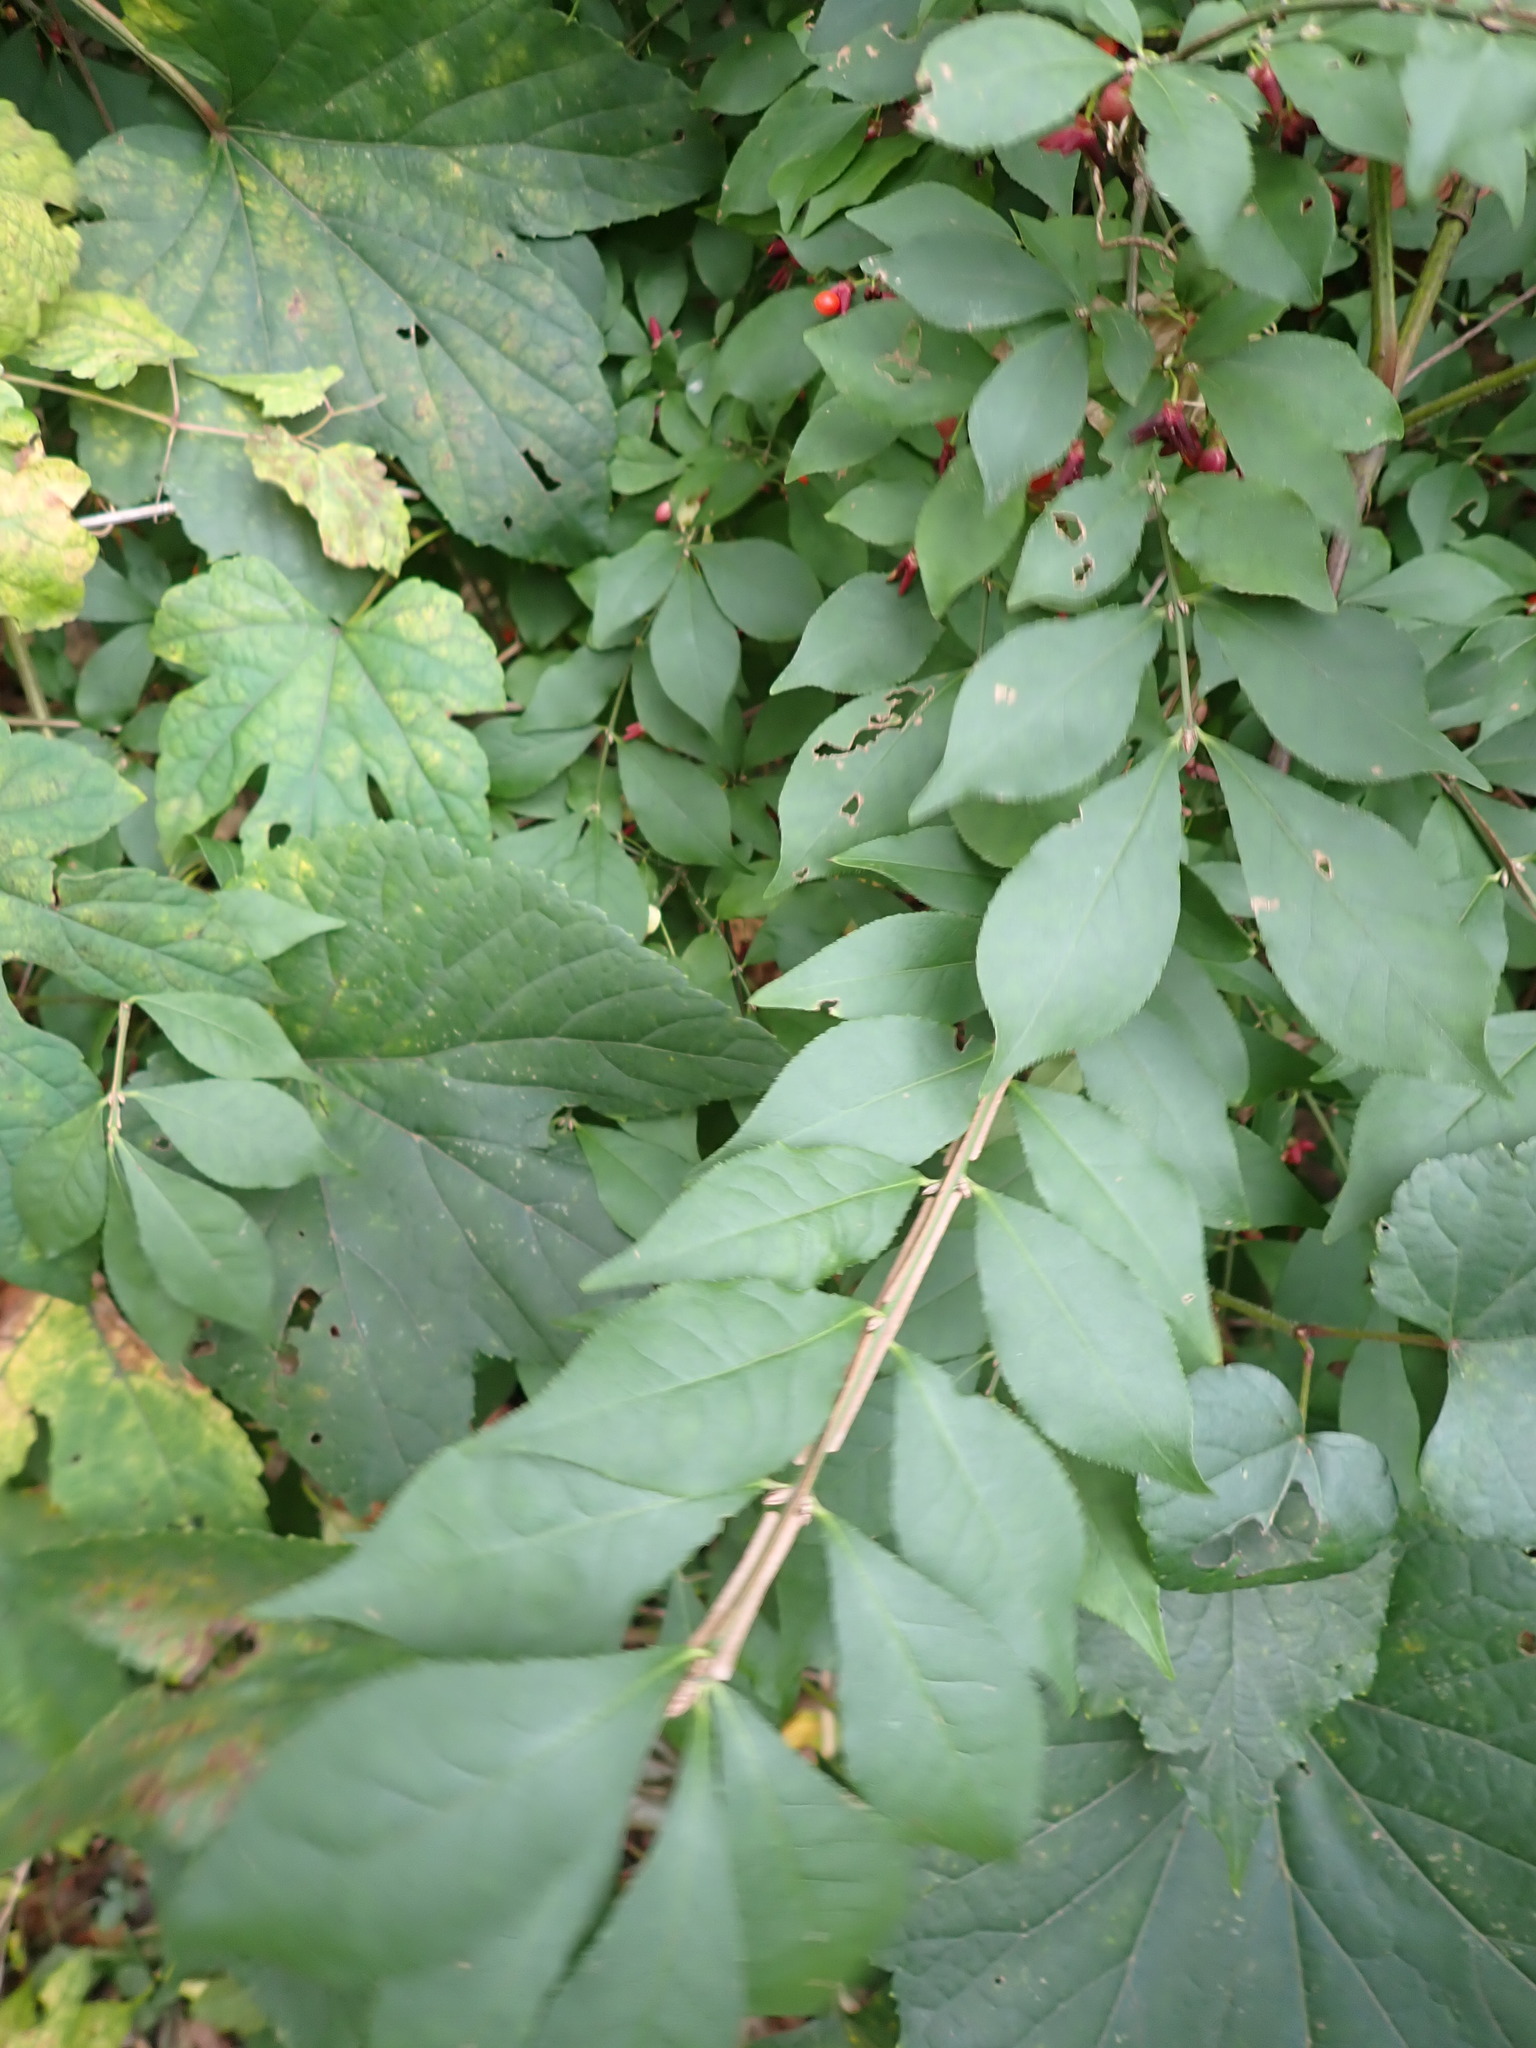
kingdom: Plantae
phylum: Tracheophyta
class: Magnoliopsida
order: Celastrales
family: Celastraceae
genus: Euonymus
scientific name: Euonymus alatus
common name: Winged euonymus
